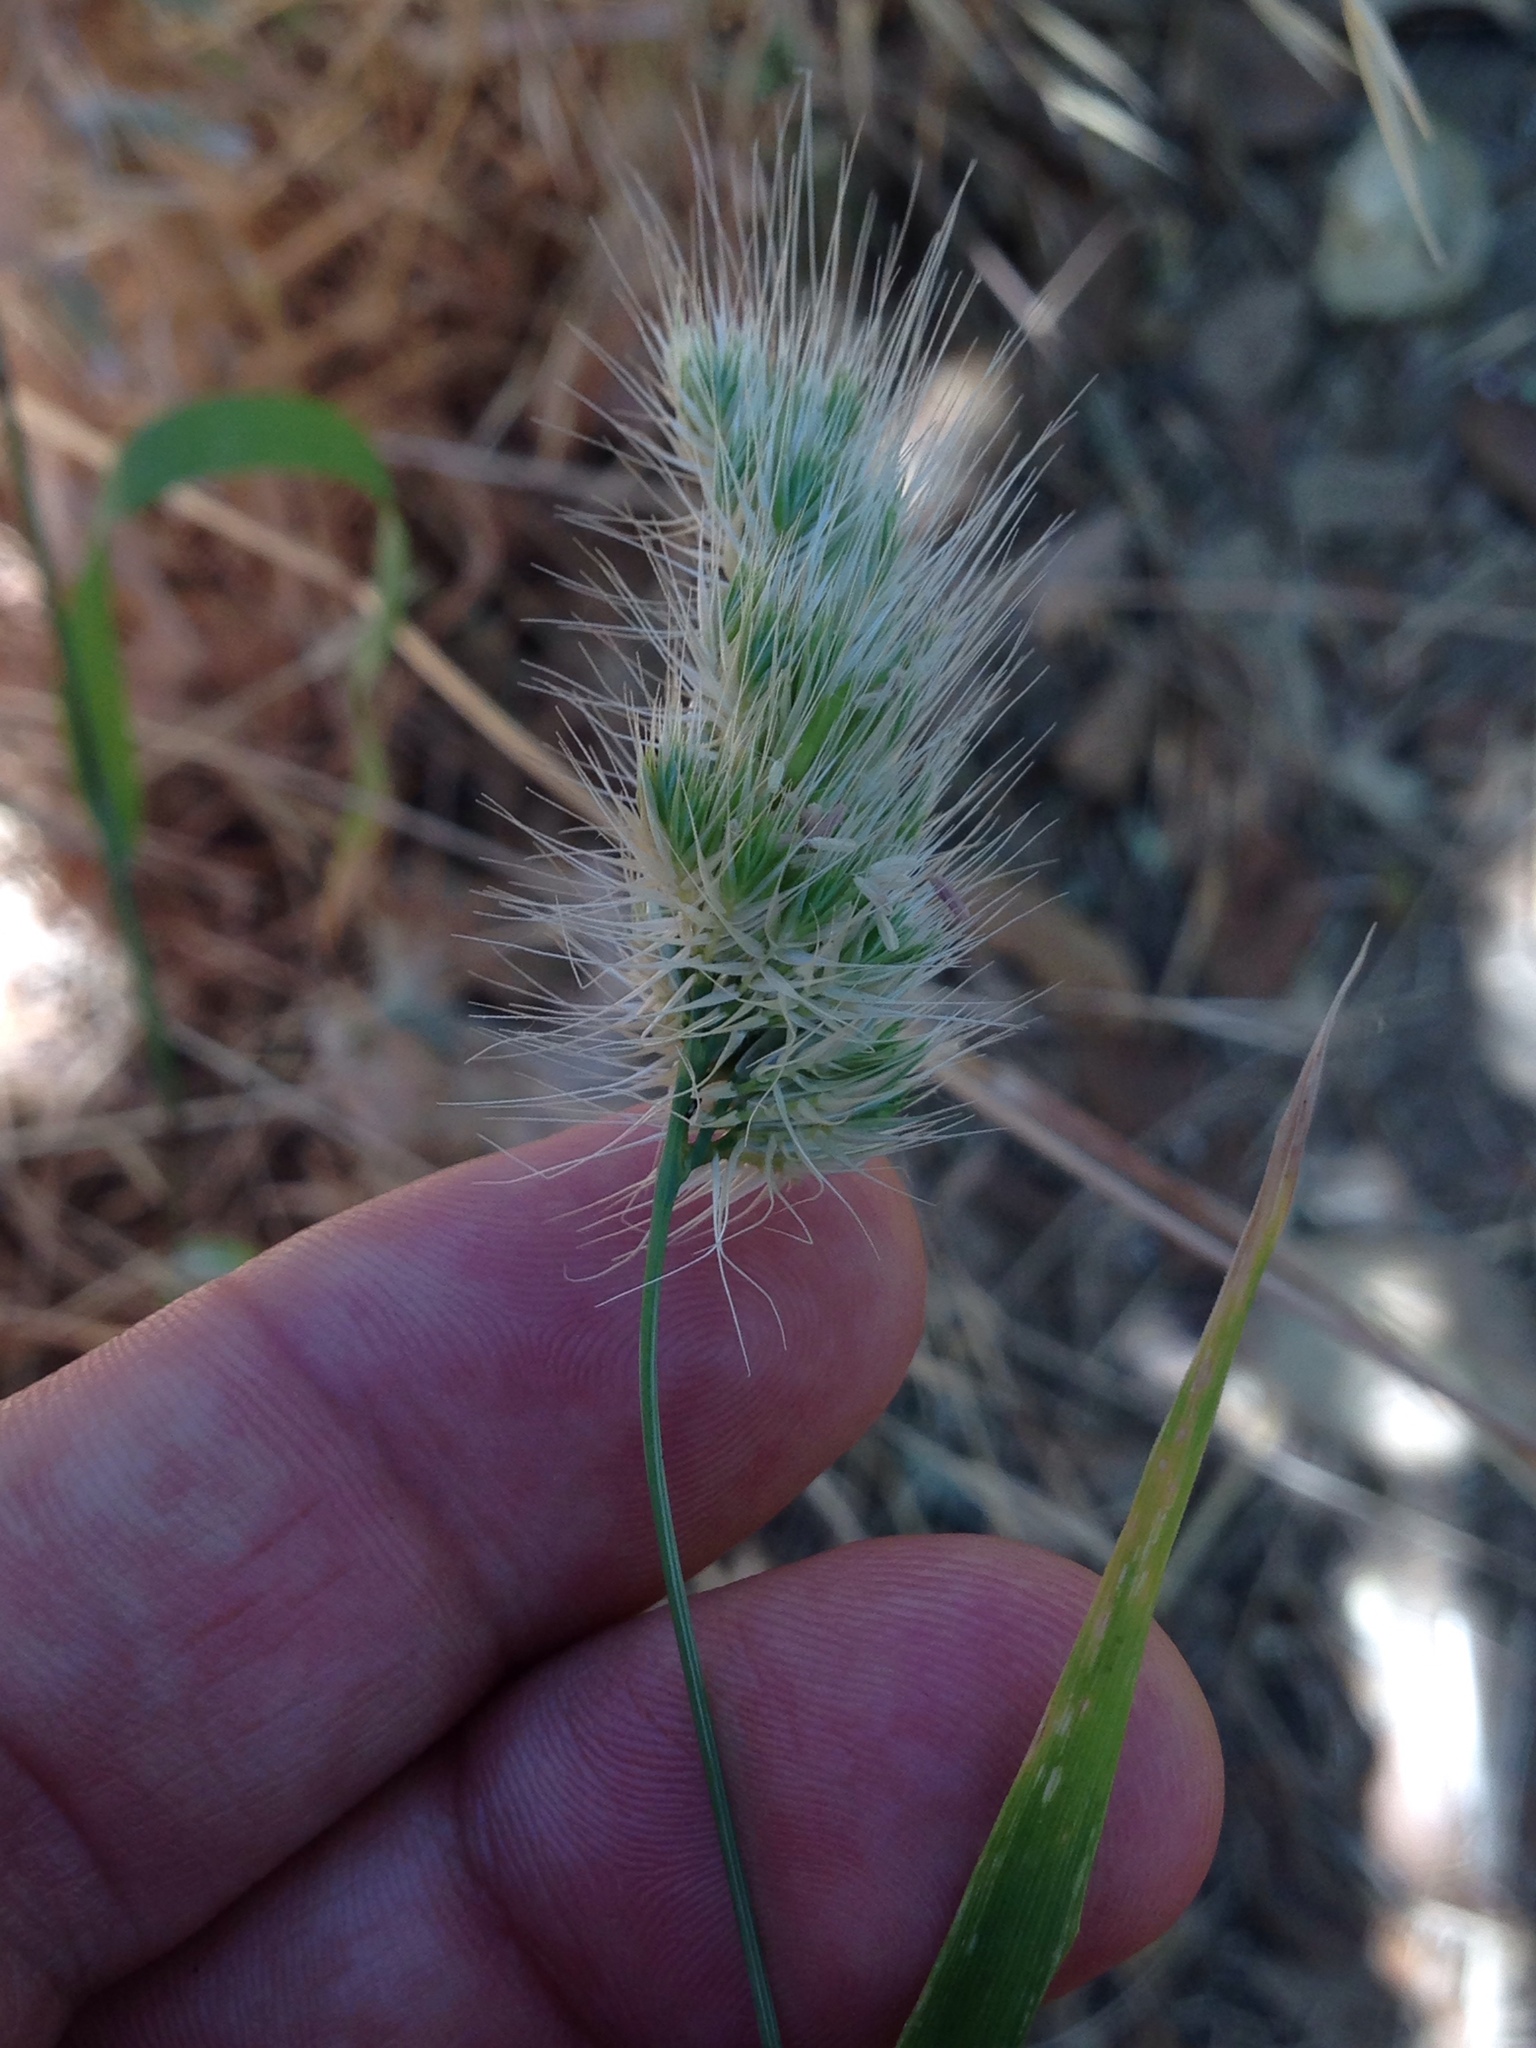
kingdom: Plantae
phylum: Tracheophyta
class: Liliopsida
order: Poales
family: Poaceae
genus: Cynosurus
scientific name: Cynosurus echinatus
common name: Rough dog's-tail
